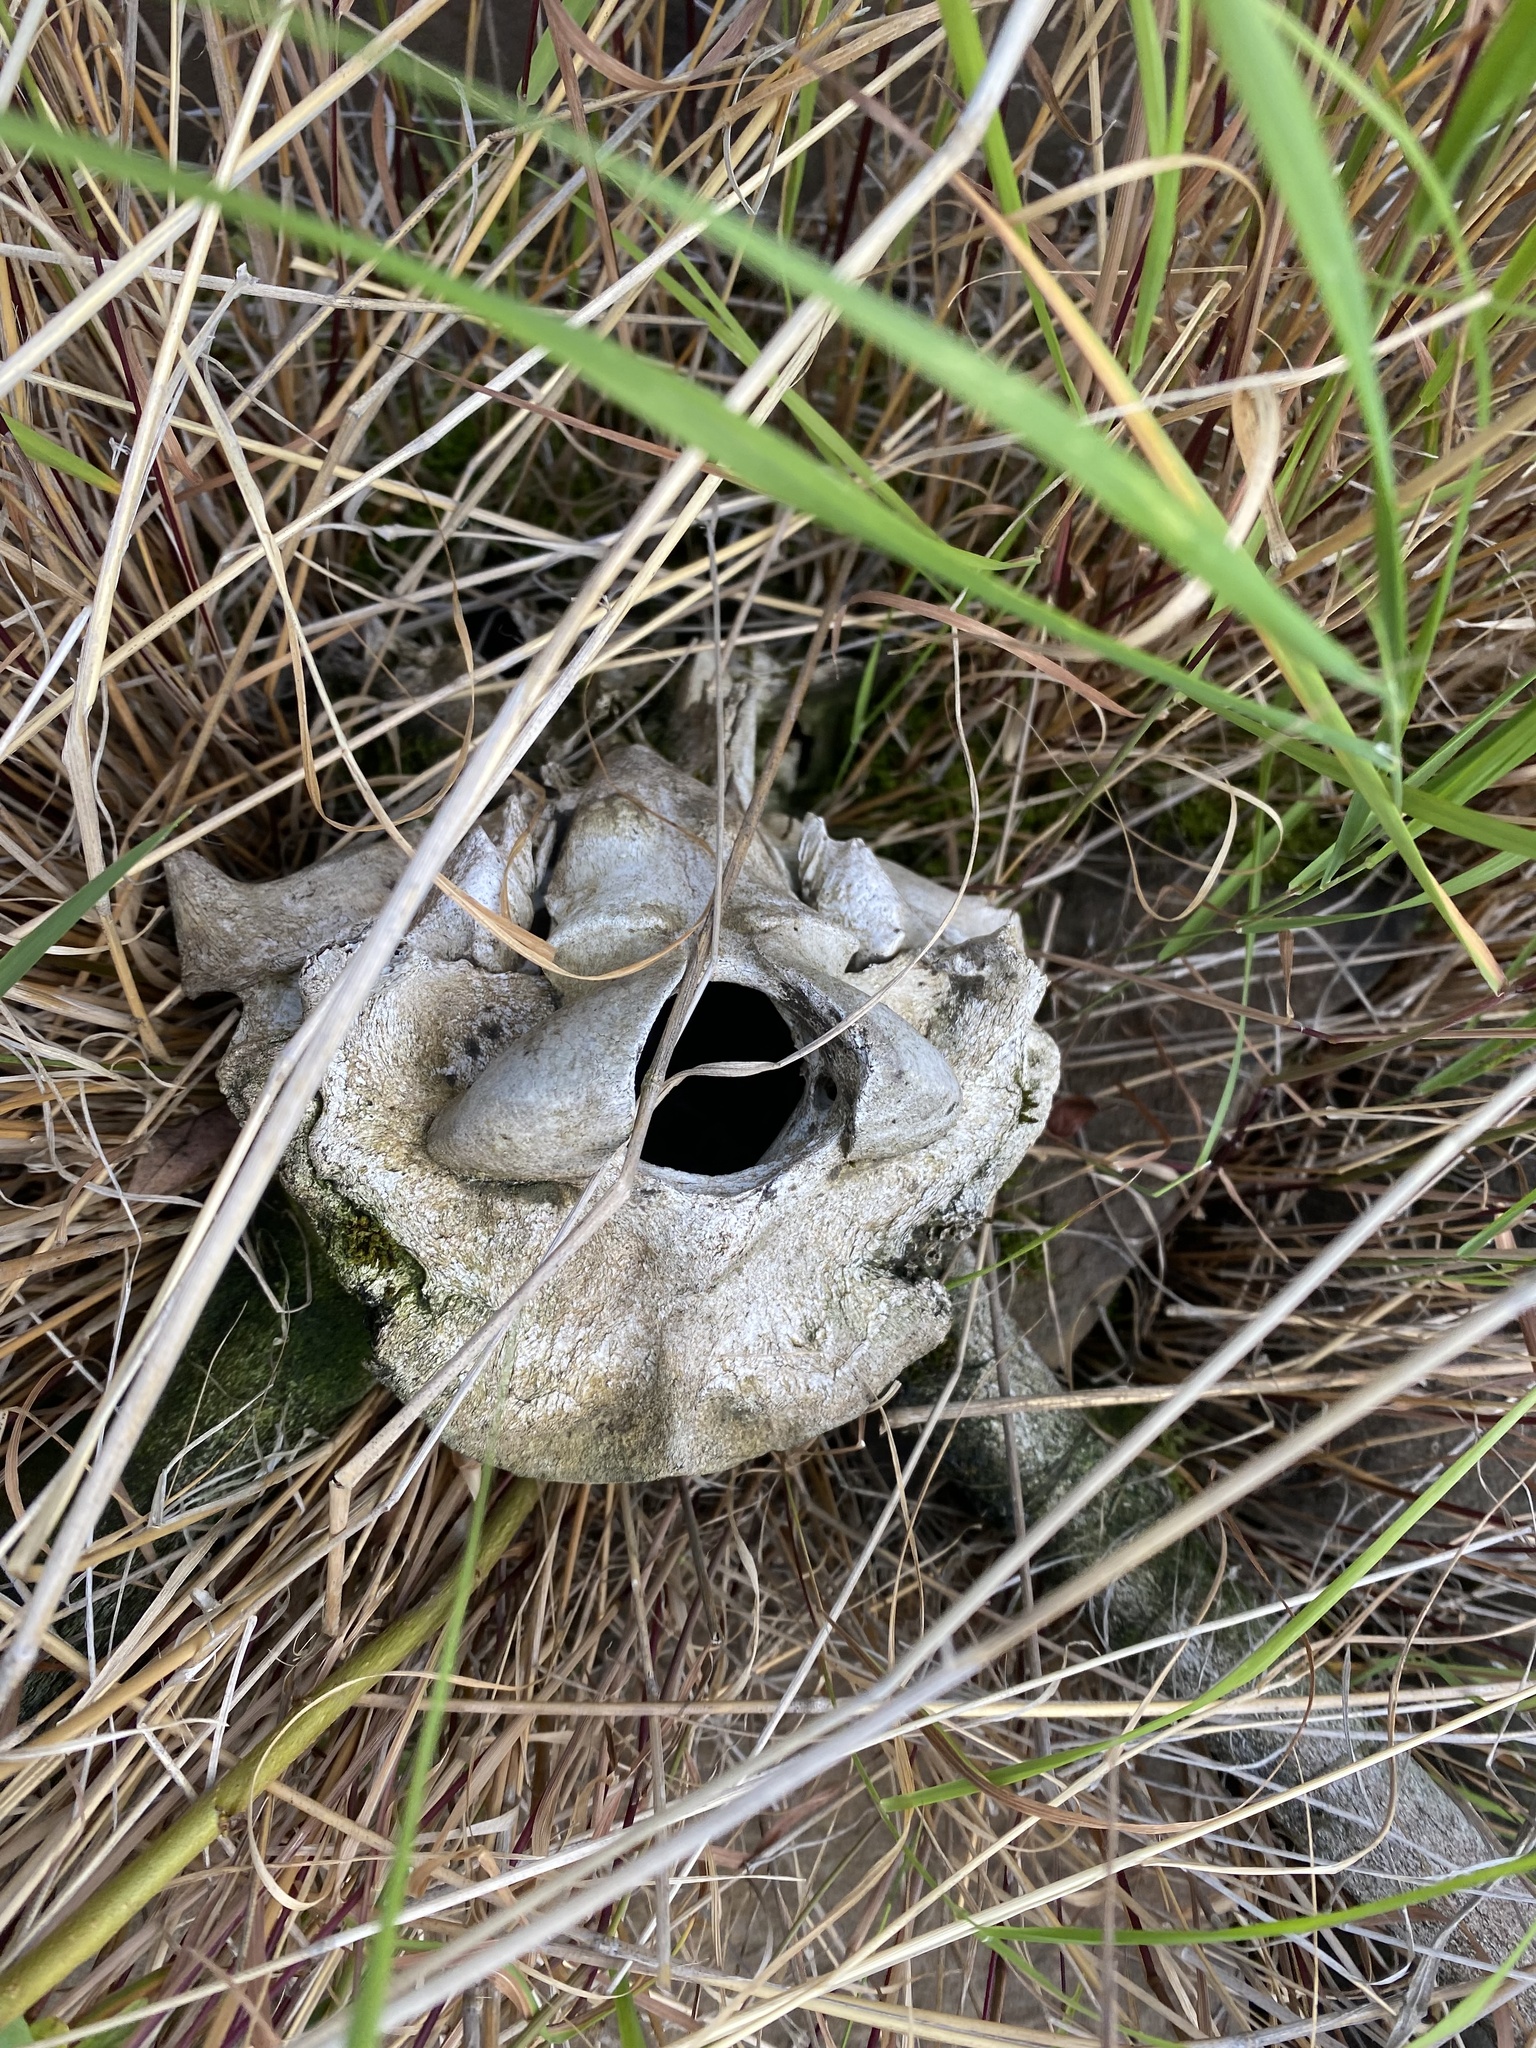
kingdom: Animalia
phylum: Chordata
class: Mammalia
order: Artiodactyla
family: Cervidae
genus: Rangifer
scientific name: Rangifer tarandus
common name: Reindeer
